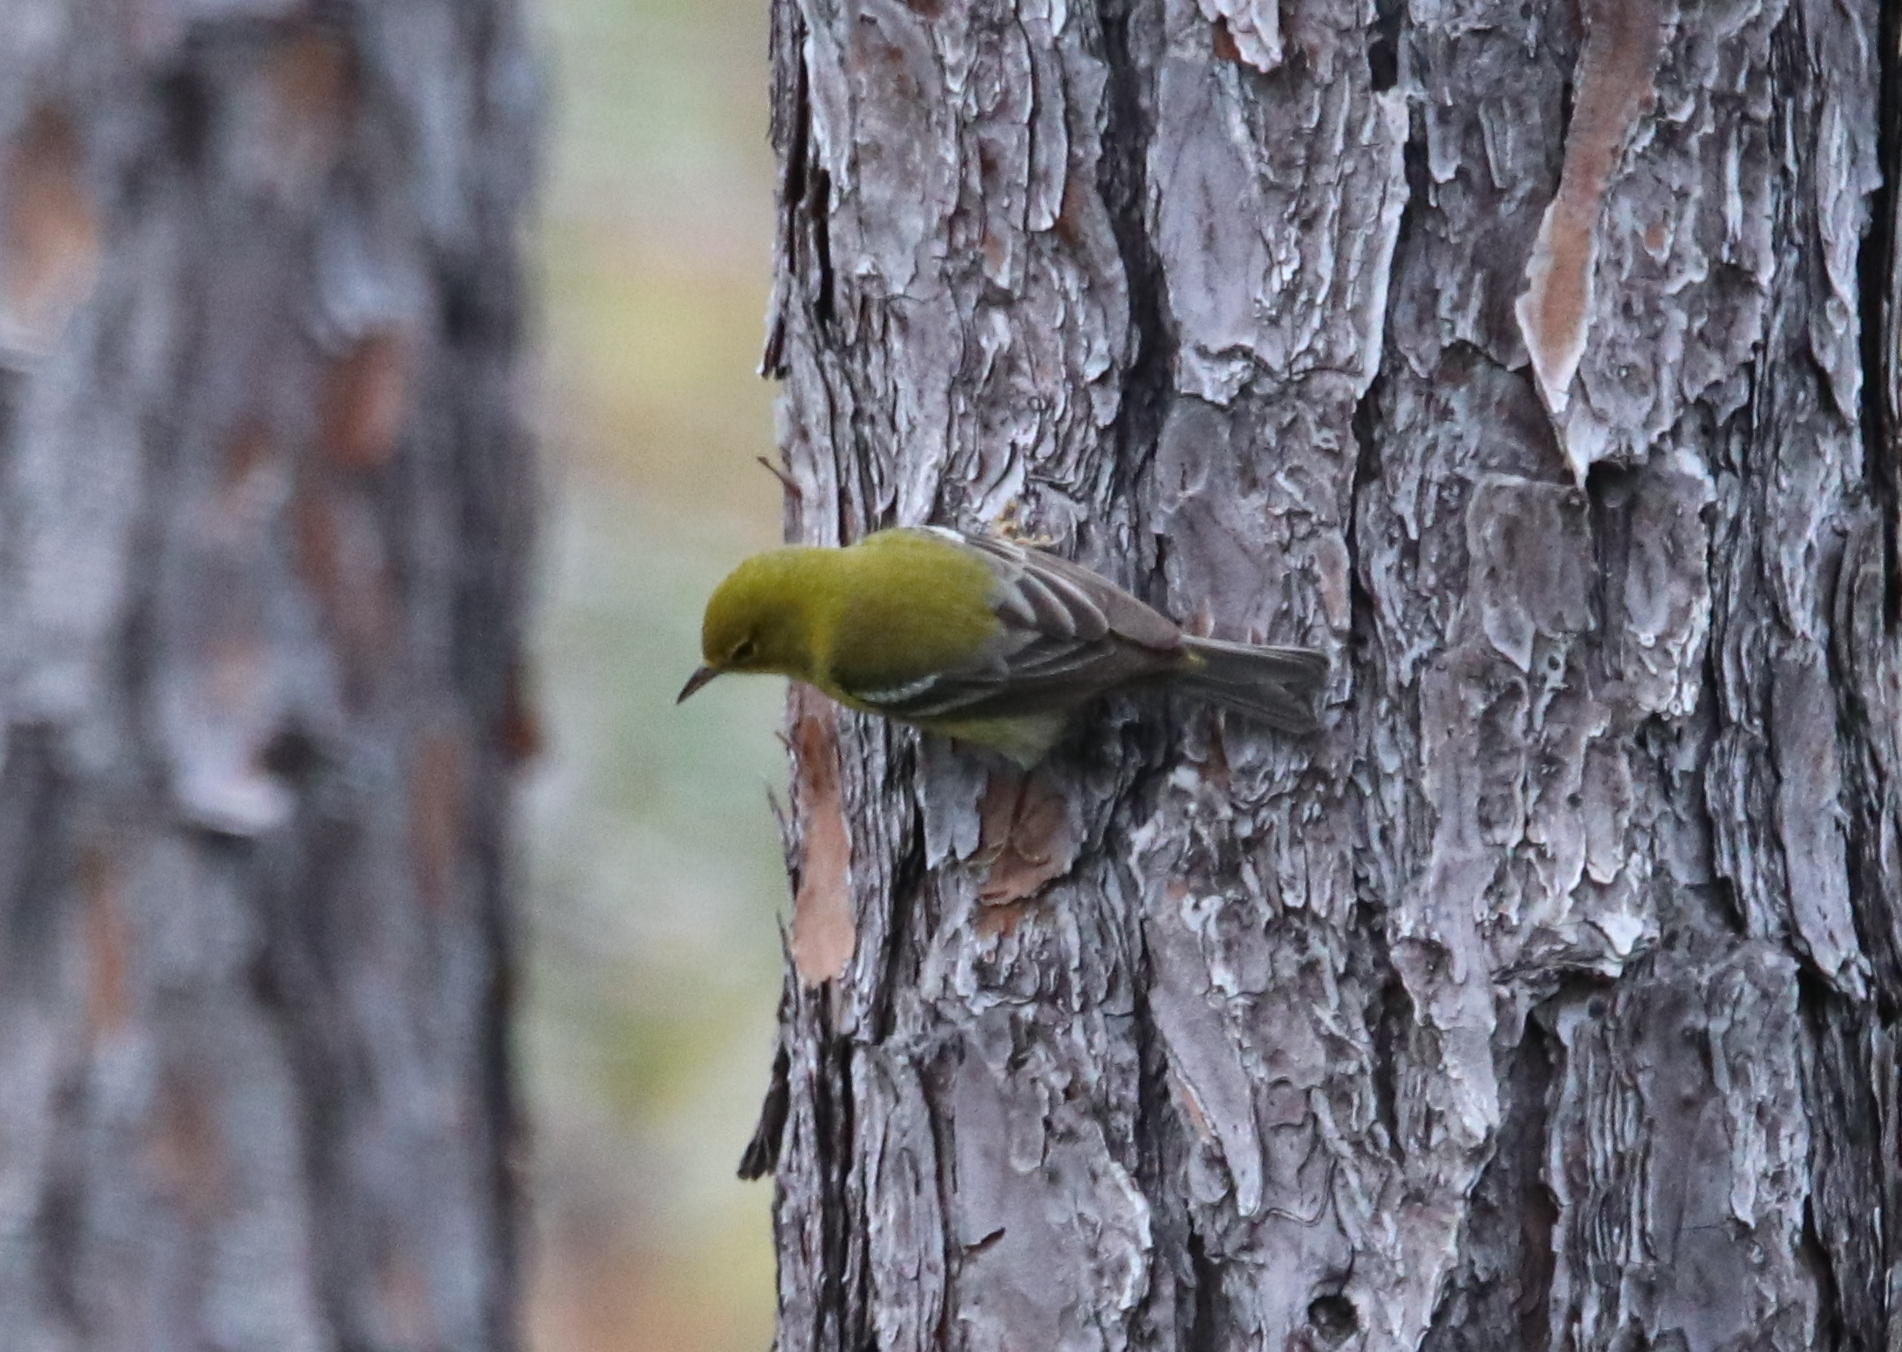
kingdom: Animalia
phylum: Chordata
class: Aves
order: Passeriformes
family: Parulidae
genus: Setophaga
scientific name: Setophaga pinus
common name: Pine warbler
